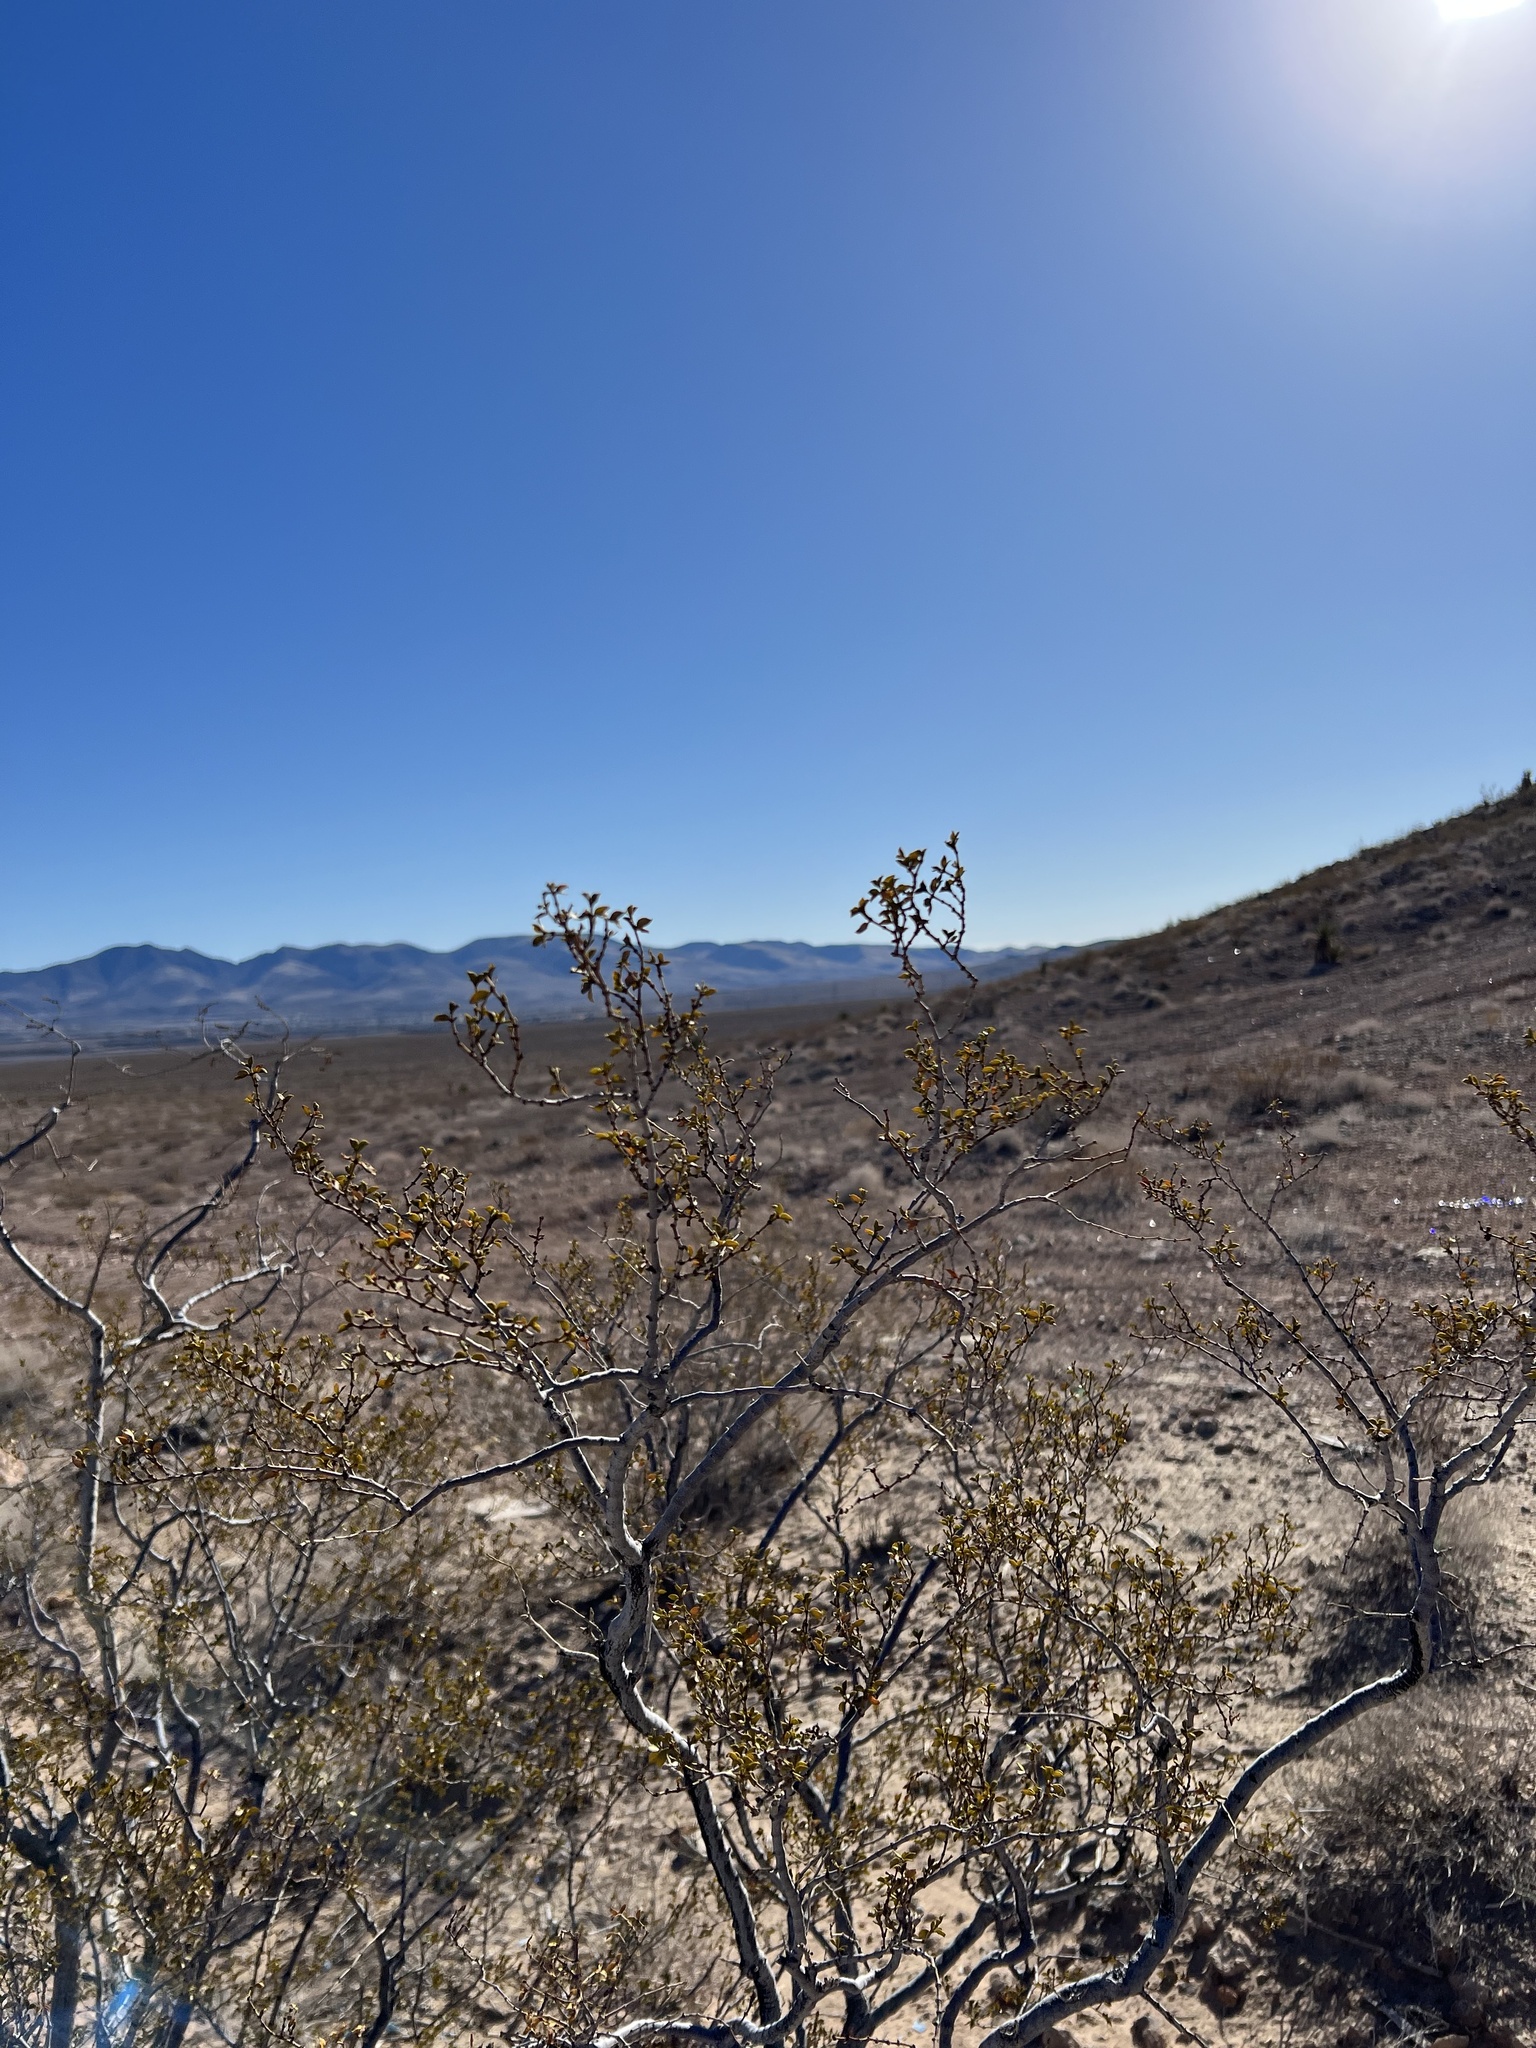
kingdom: Plantae
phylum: Tracheophyta
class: Magnoliopsida
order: Zygophyllales
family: Zygophyllaceae
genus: Larrea
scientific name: Larrea tridentata
